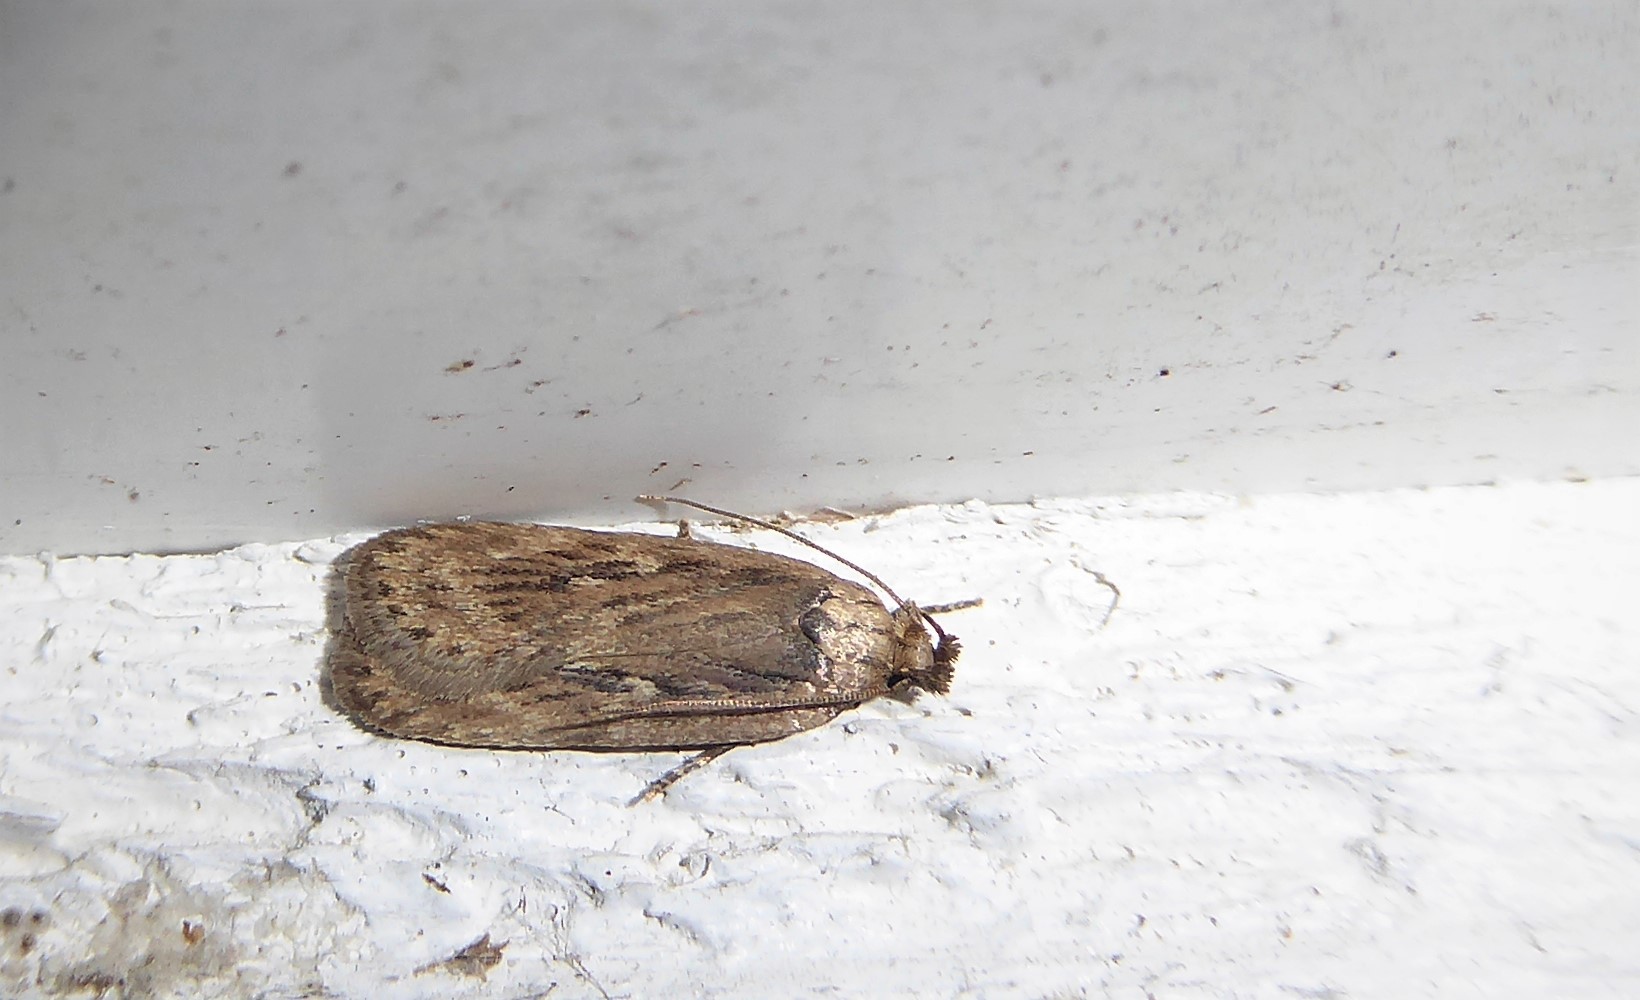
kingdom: Animalia
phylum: Arthropoda
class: Insecta
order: Lepidoptera
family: Depressariidae
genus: Depressaria
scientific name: Depressaria radiella
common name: Parsnip moth
